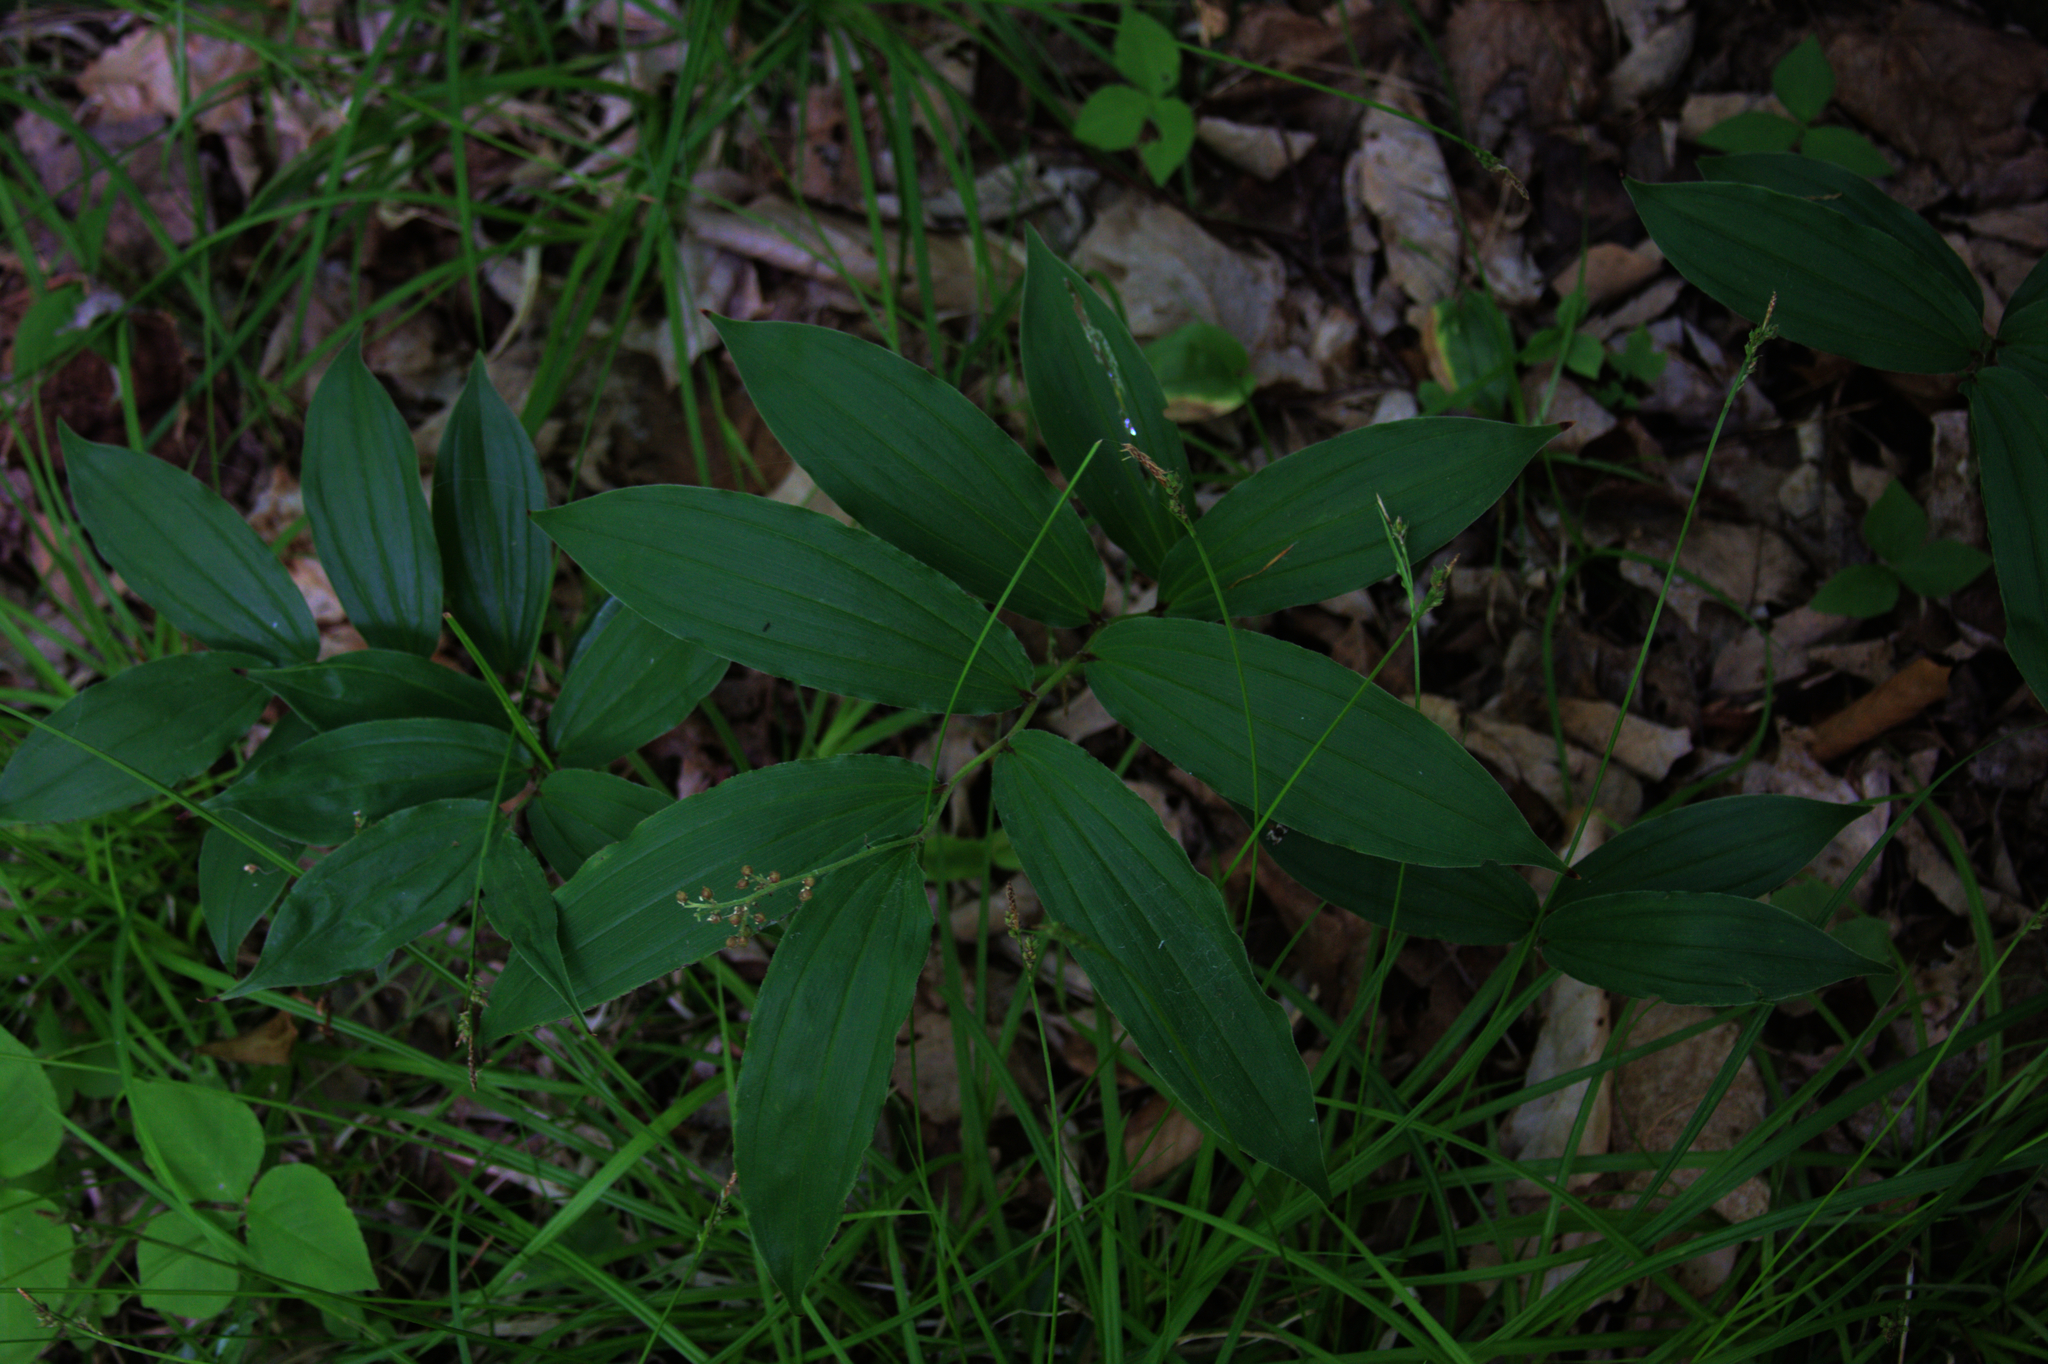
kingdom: Plantae
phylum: Tracheophyta
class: Liliopsida
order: Asparagales
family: Asparagaceae
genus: Maianthemum
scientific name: Maianthemum racemosum
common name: False spikenard
